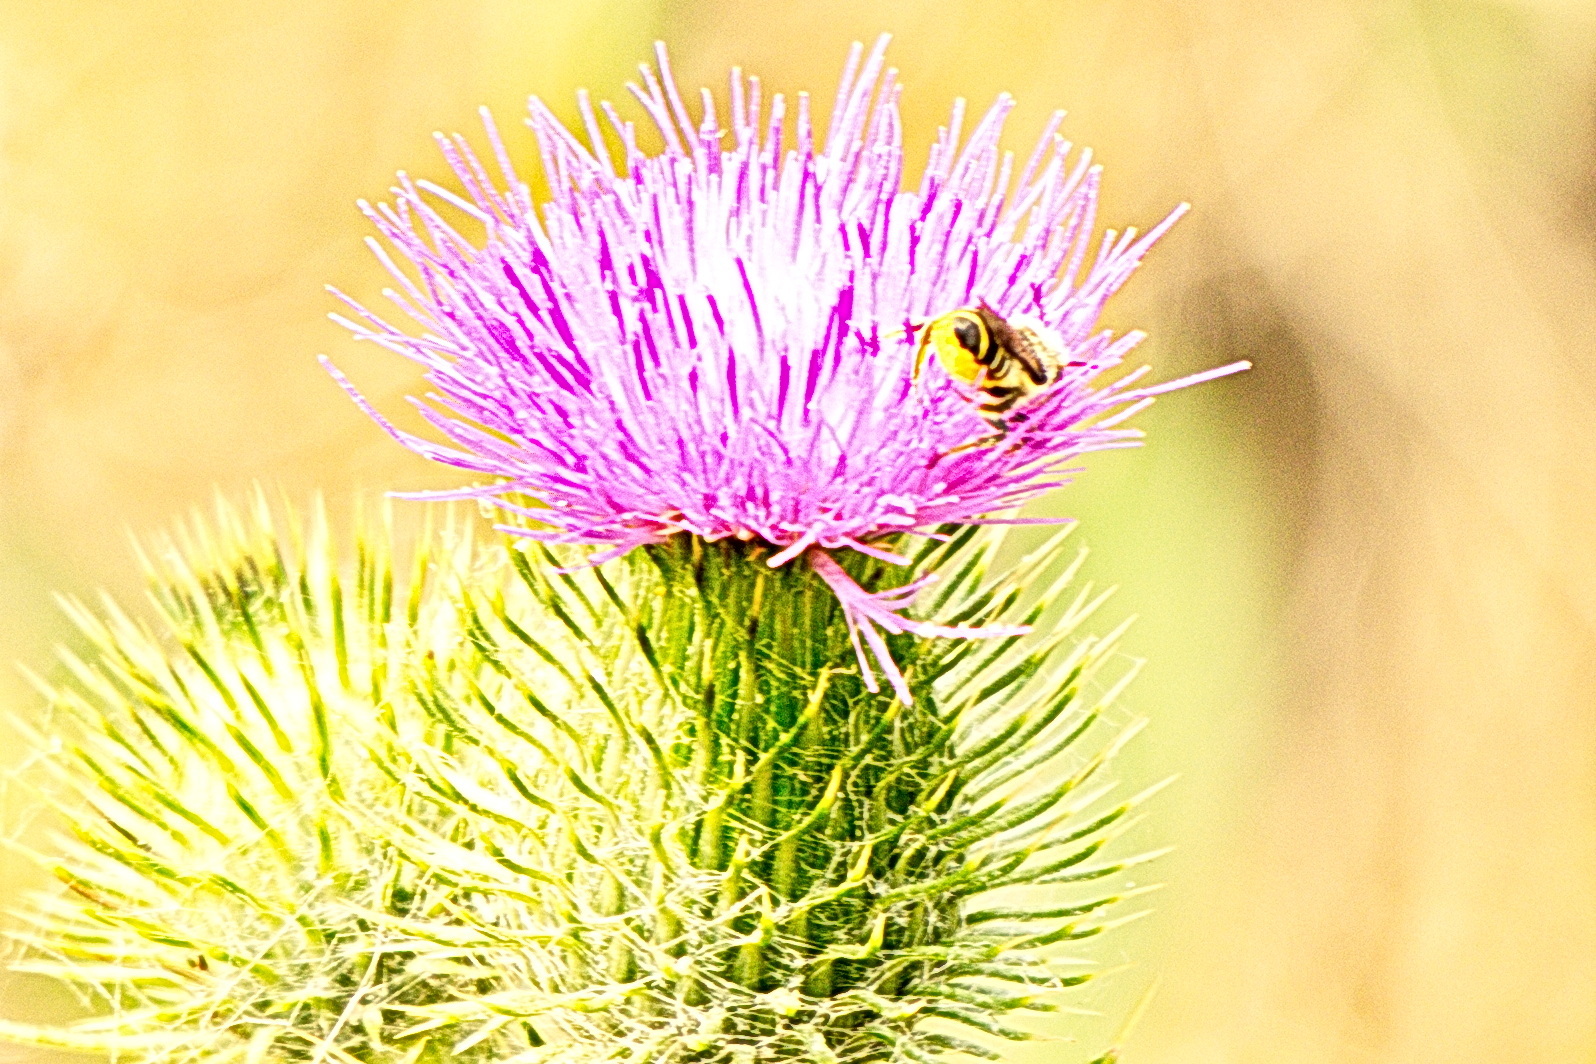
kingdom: Animalia
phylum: Arthropoda
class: Insecta
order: Hymenoptera
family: Megachilidae
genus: Megachile
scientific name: Megachile
